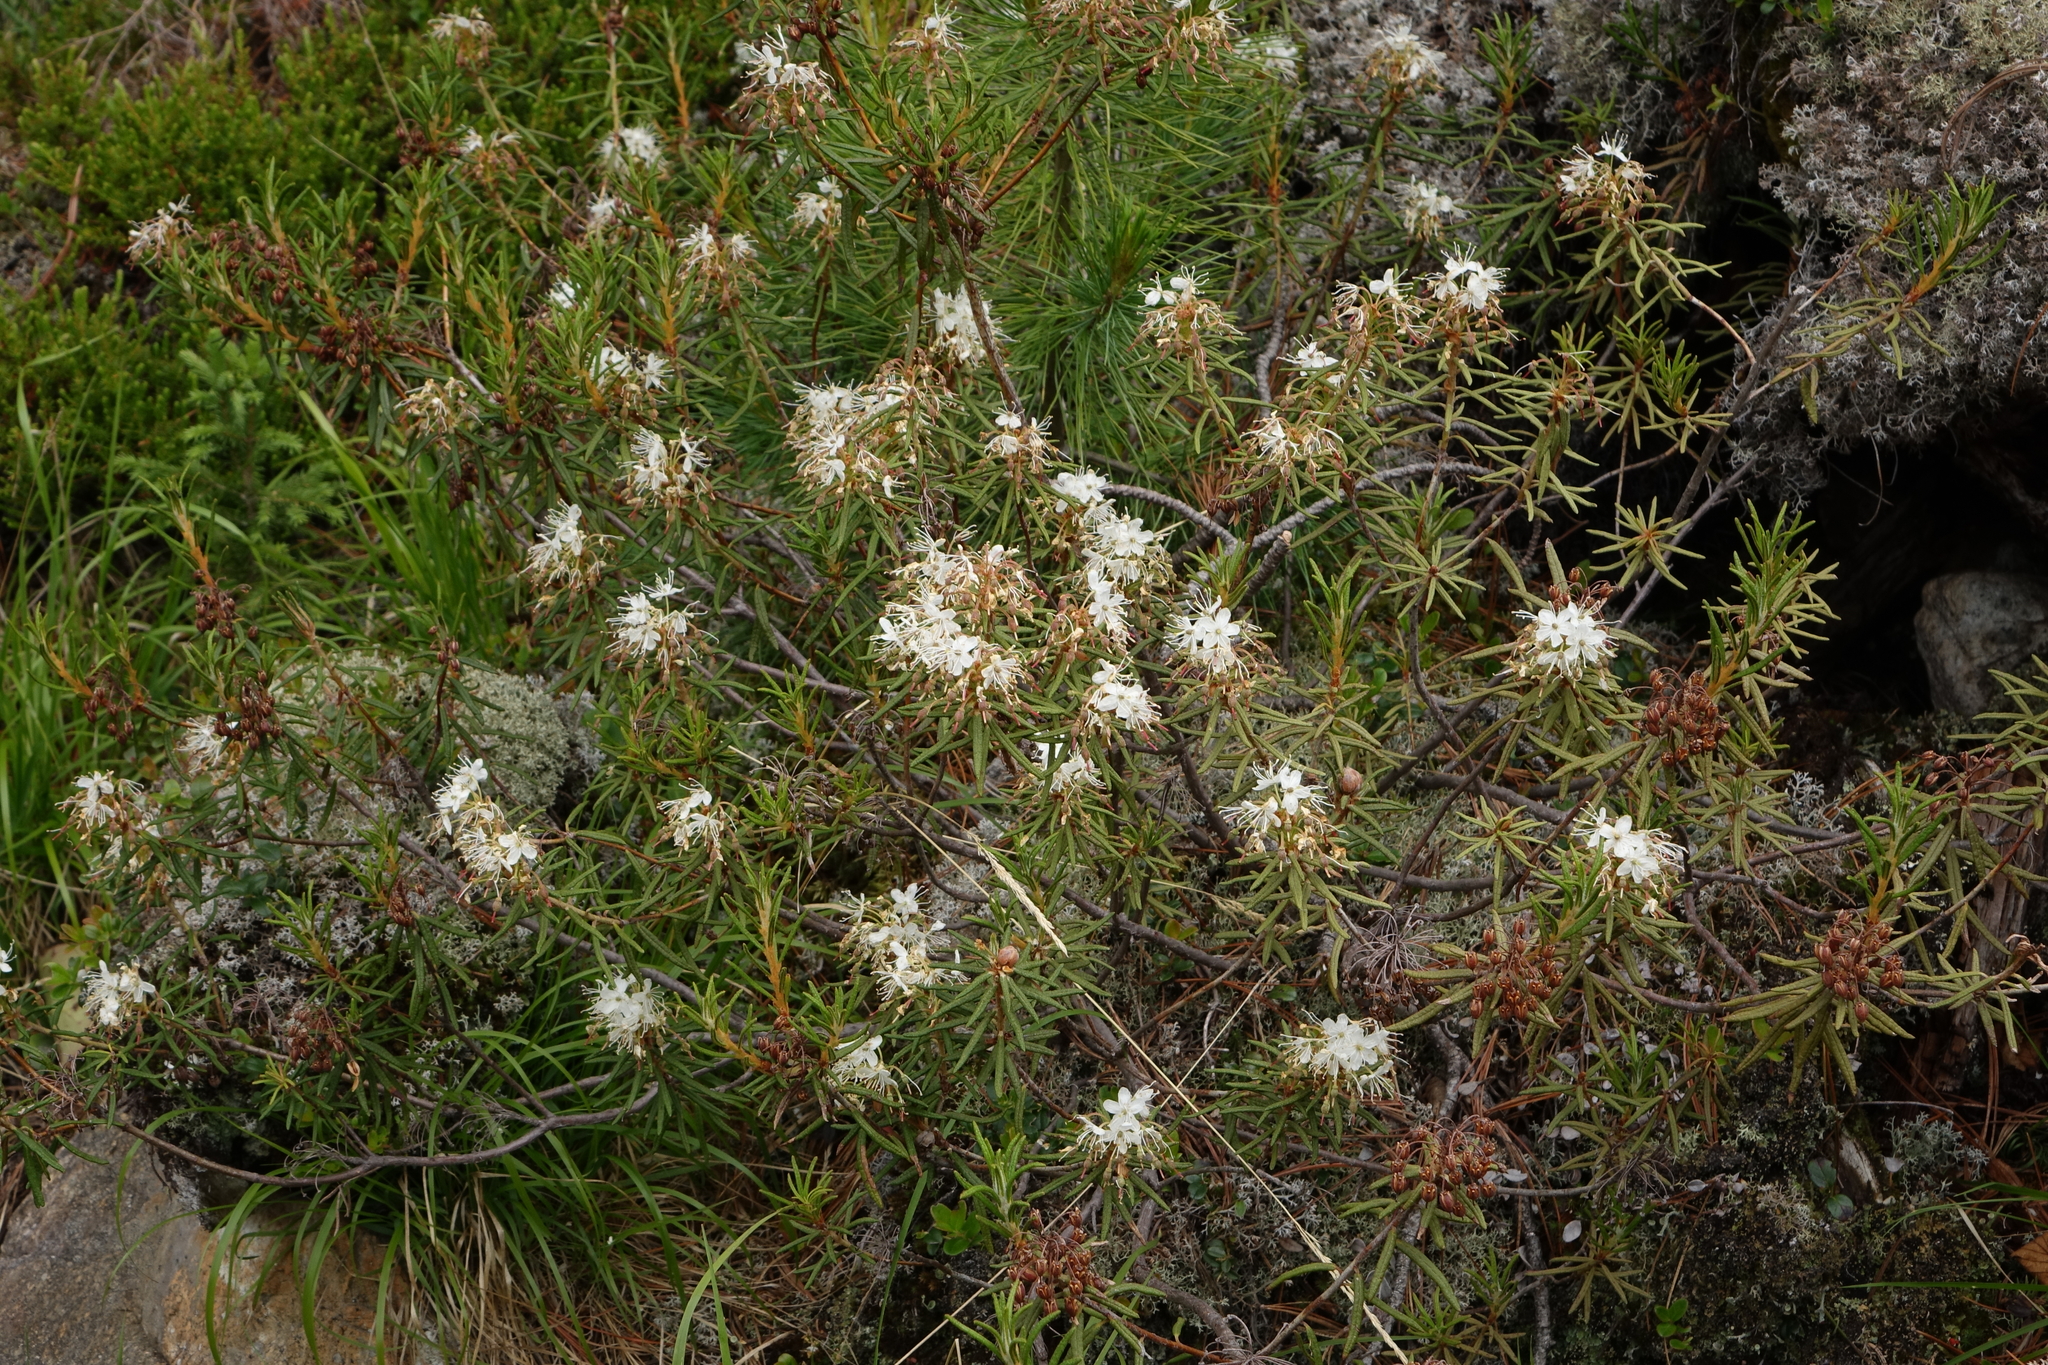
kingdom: Plantae
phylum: Tracheophyta
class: Magnoliopsida
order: Ericales
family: Ericaceae
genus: Rhododendron
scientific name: Rhododendron tomentosum
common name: Marsh labrador tea
